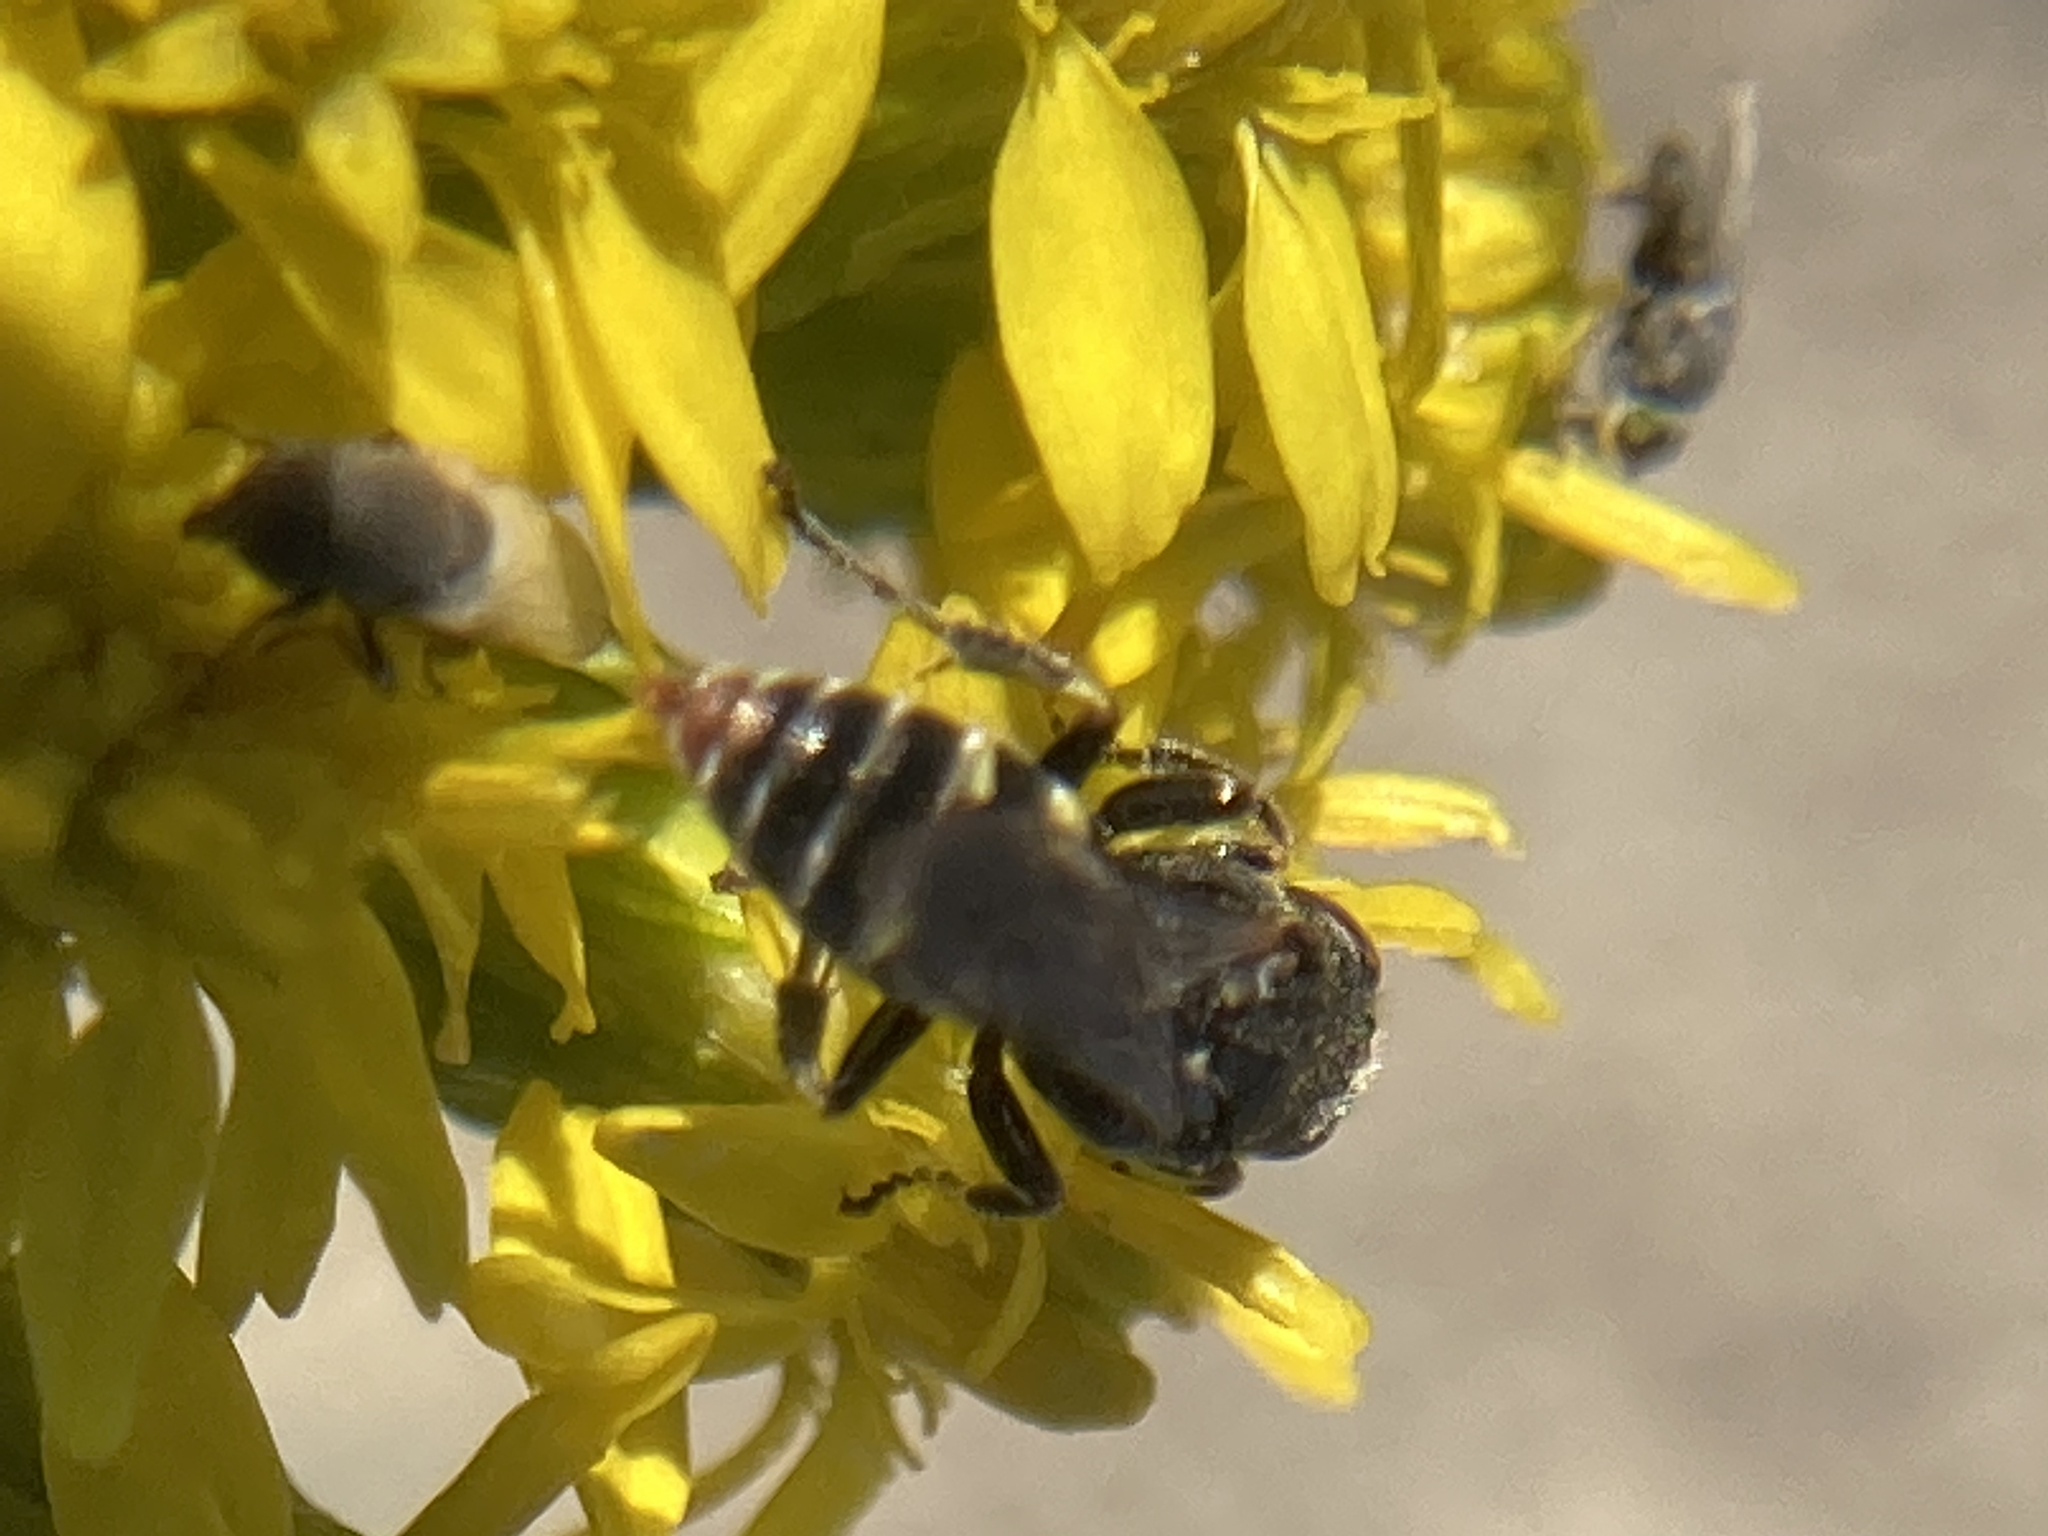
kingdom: Animalia
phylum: Arthropoda
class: Insecta
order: Hymenoptera
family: Crabronidae
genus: Oxybelus
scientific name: Oxybelus
